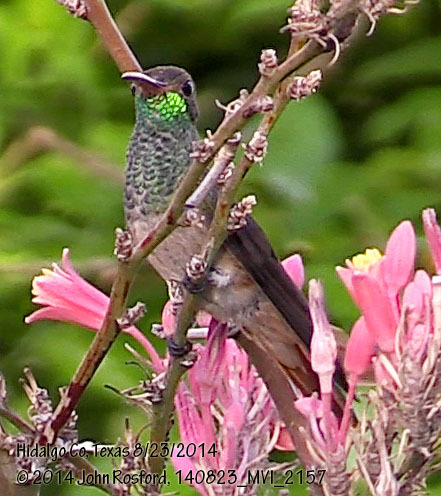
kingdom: Animalia
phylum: Chordata
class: Aves
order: Apodiformes
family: Trochilidae
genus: Amazilia
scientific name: Amazilia yucatanensis
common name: Buff-bellied hummingbird
